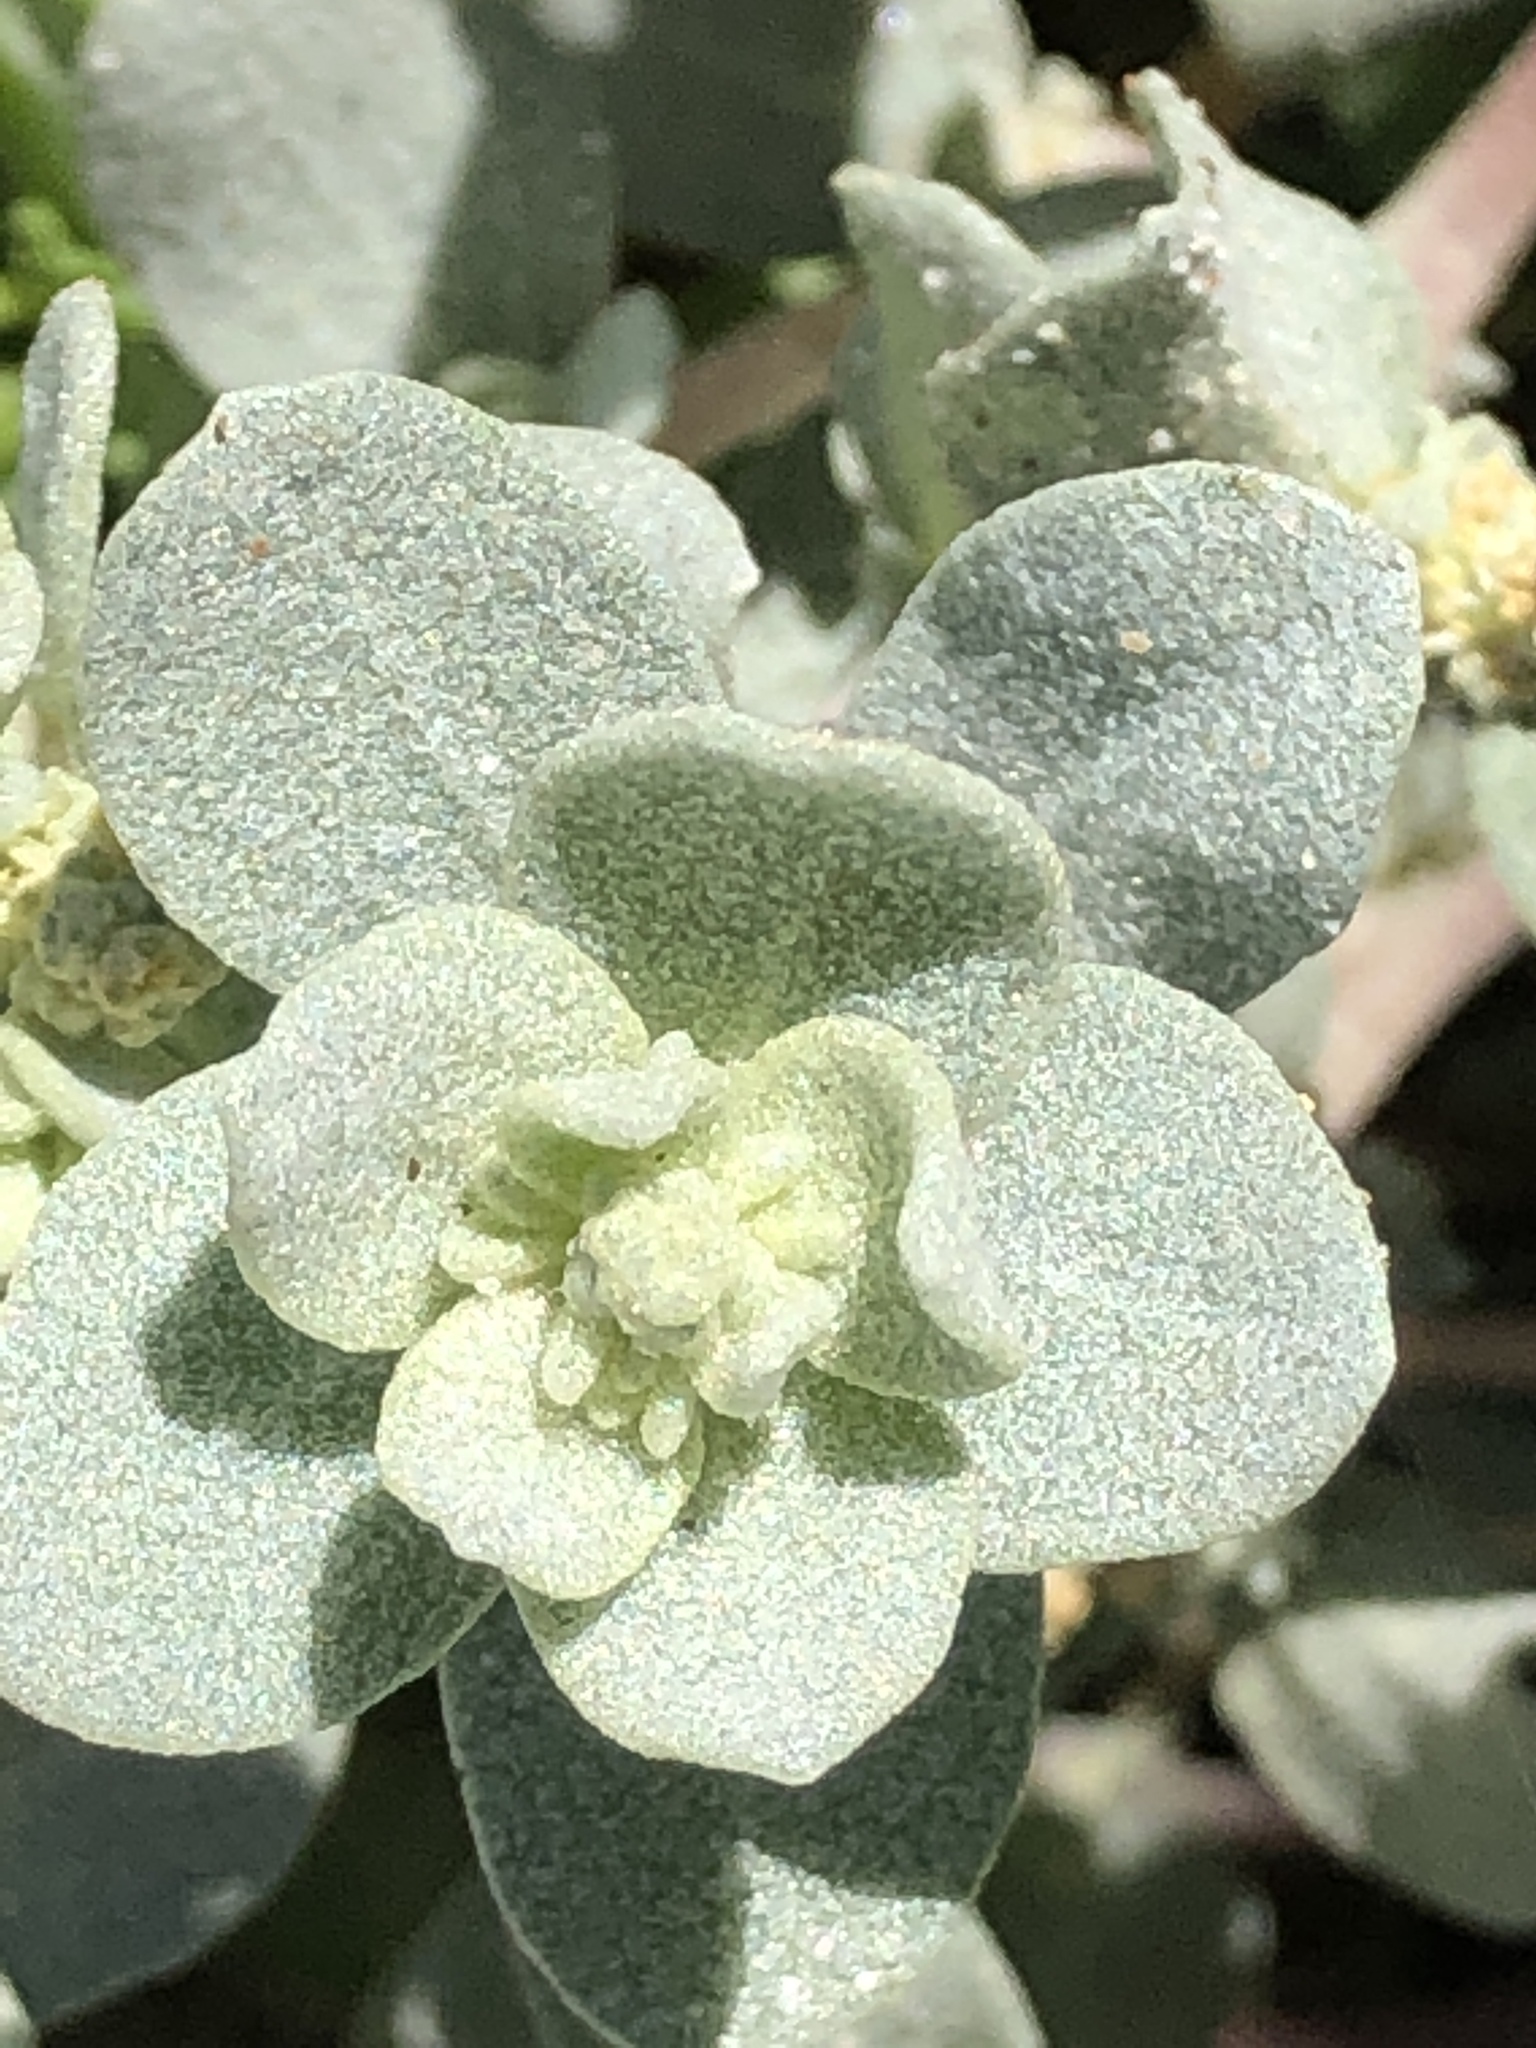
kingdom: Plantae
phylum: Tracheophyta
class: Magnoliopsida
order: Caryophyllales
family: Amaranthaceae
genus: Atriplex
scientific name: Atriplex leucophylla
